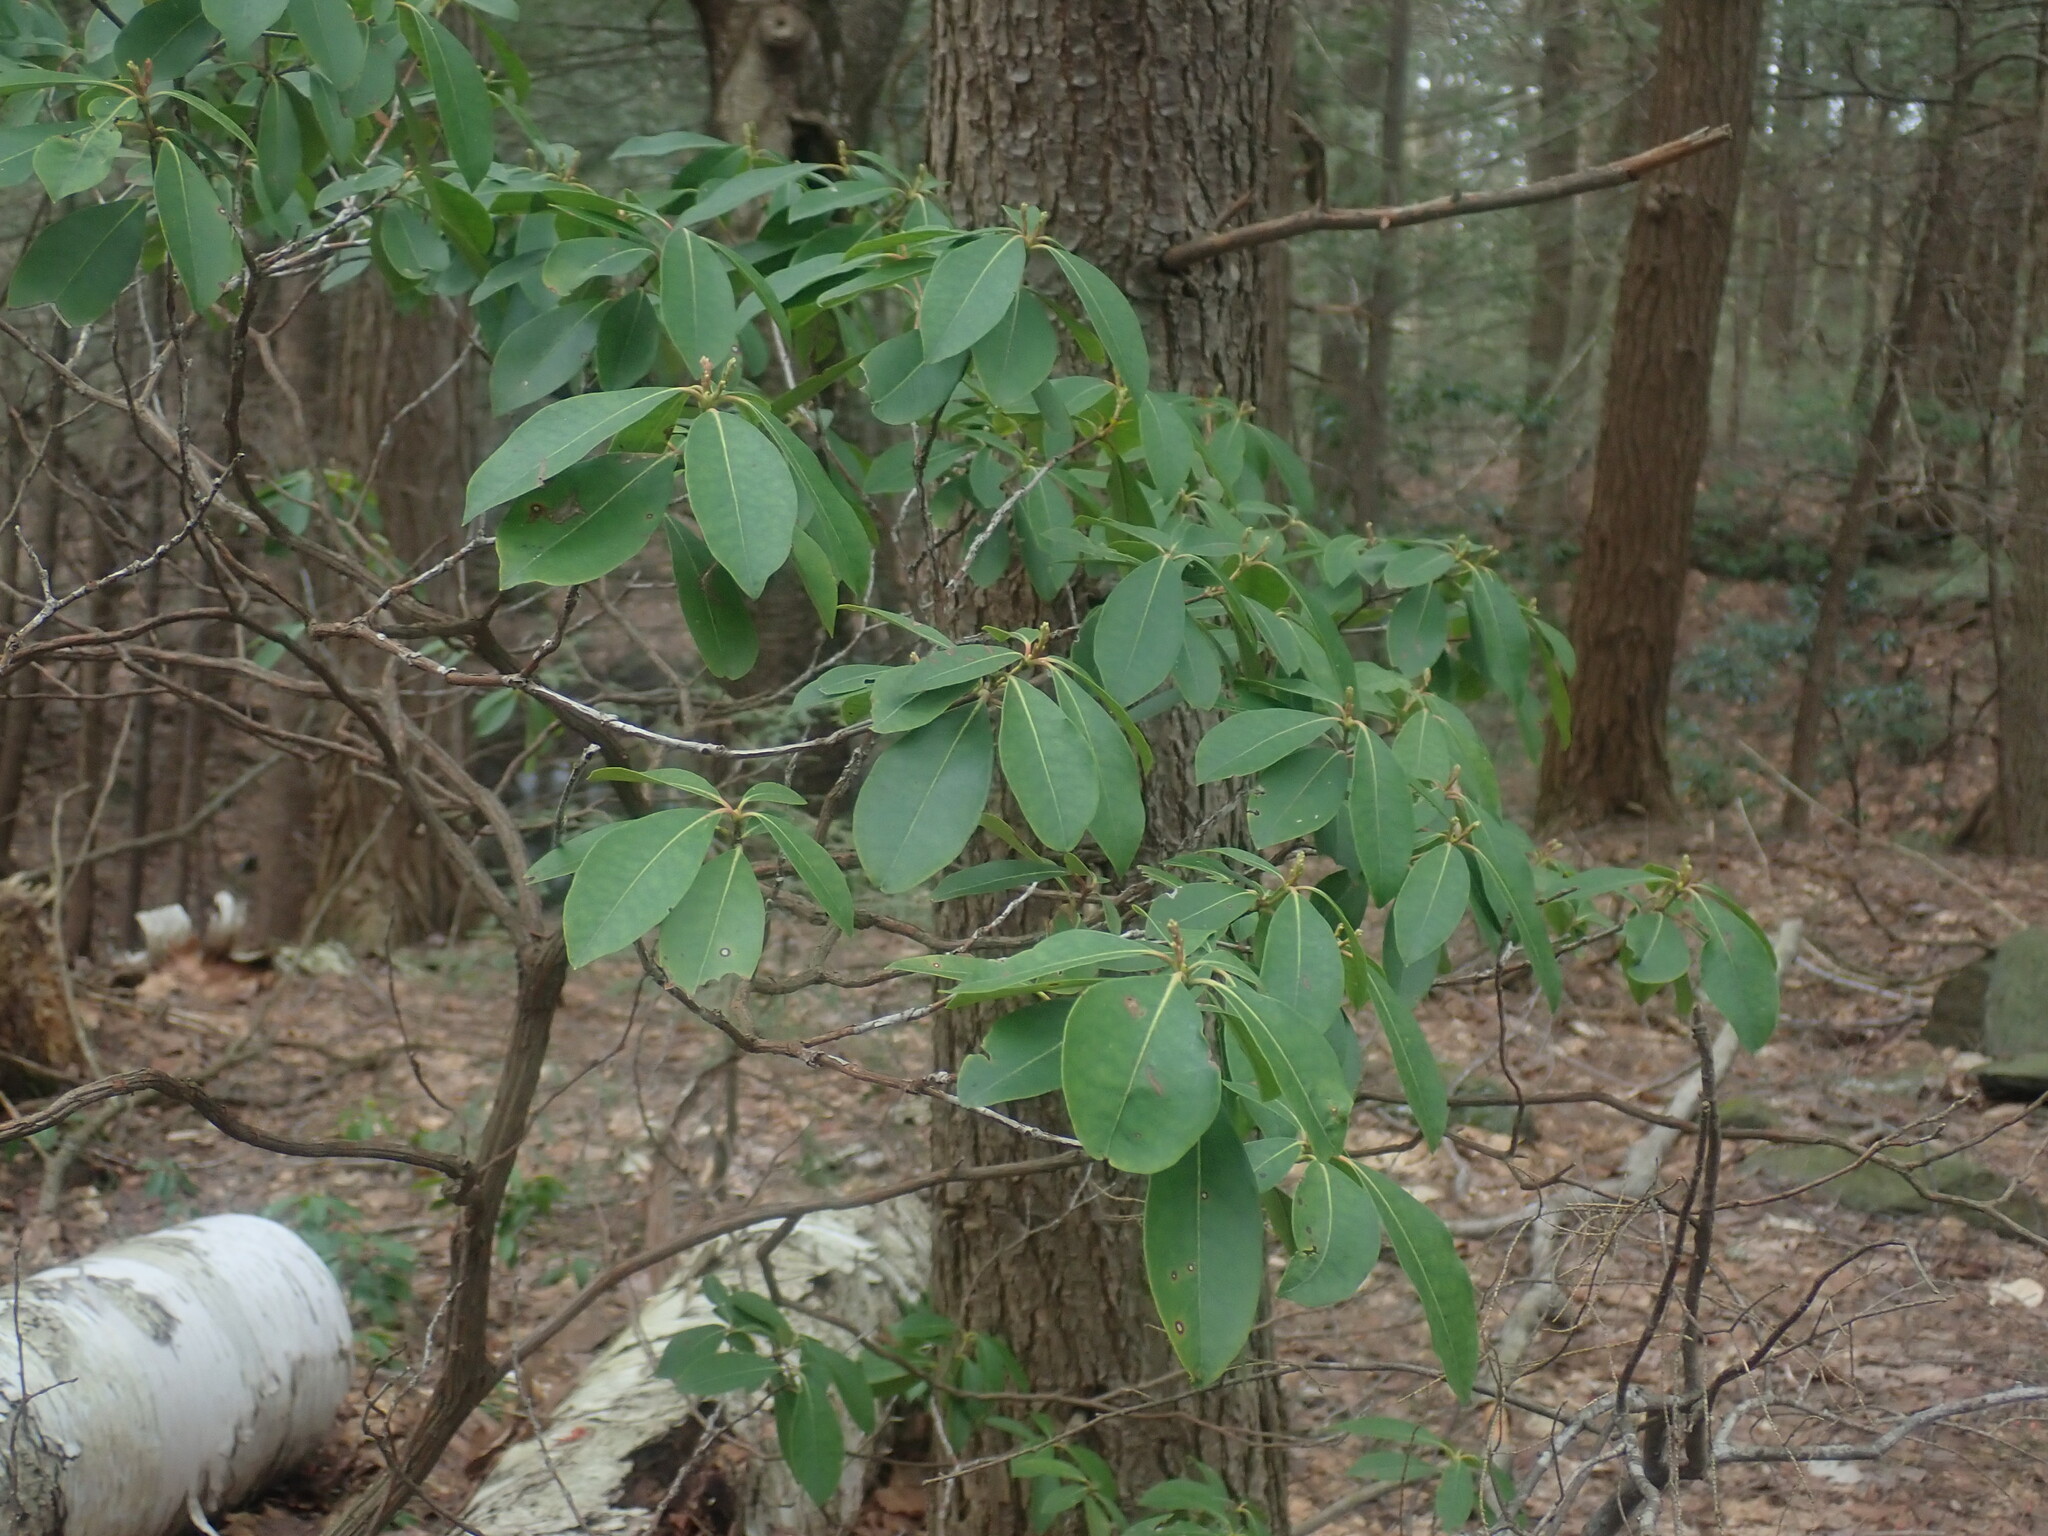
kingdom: Plantae
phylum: Tracheophyta
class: Magnoliopsida
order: Ericales
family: Ericaceae
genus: Kalmia
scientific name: Kalmia latifolia
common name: Mountain-laurel
